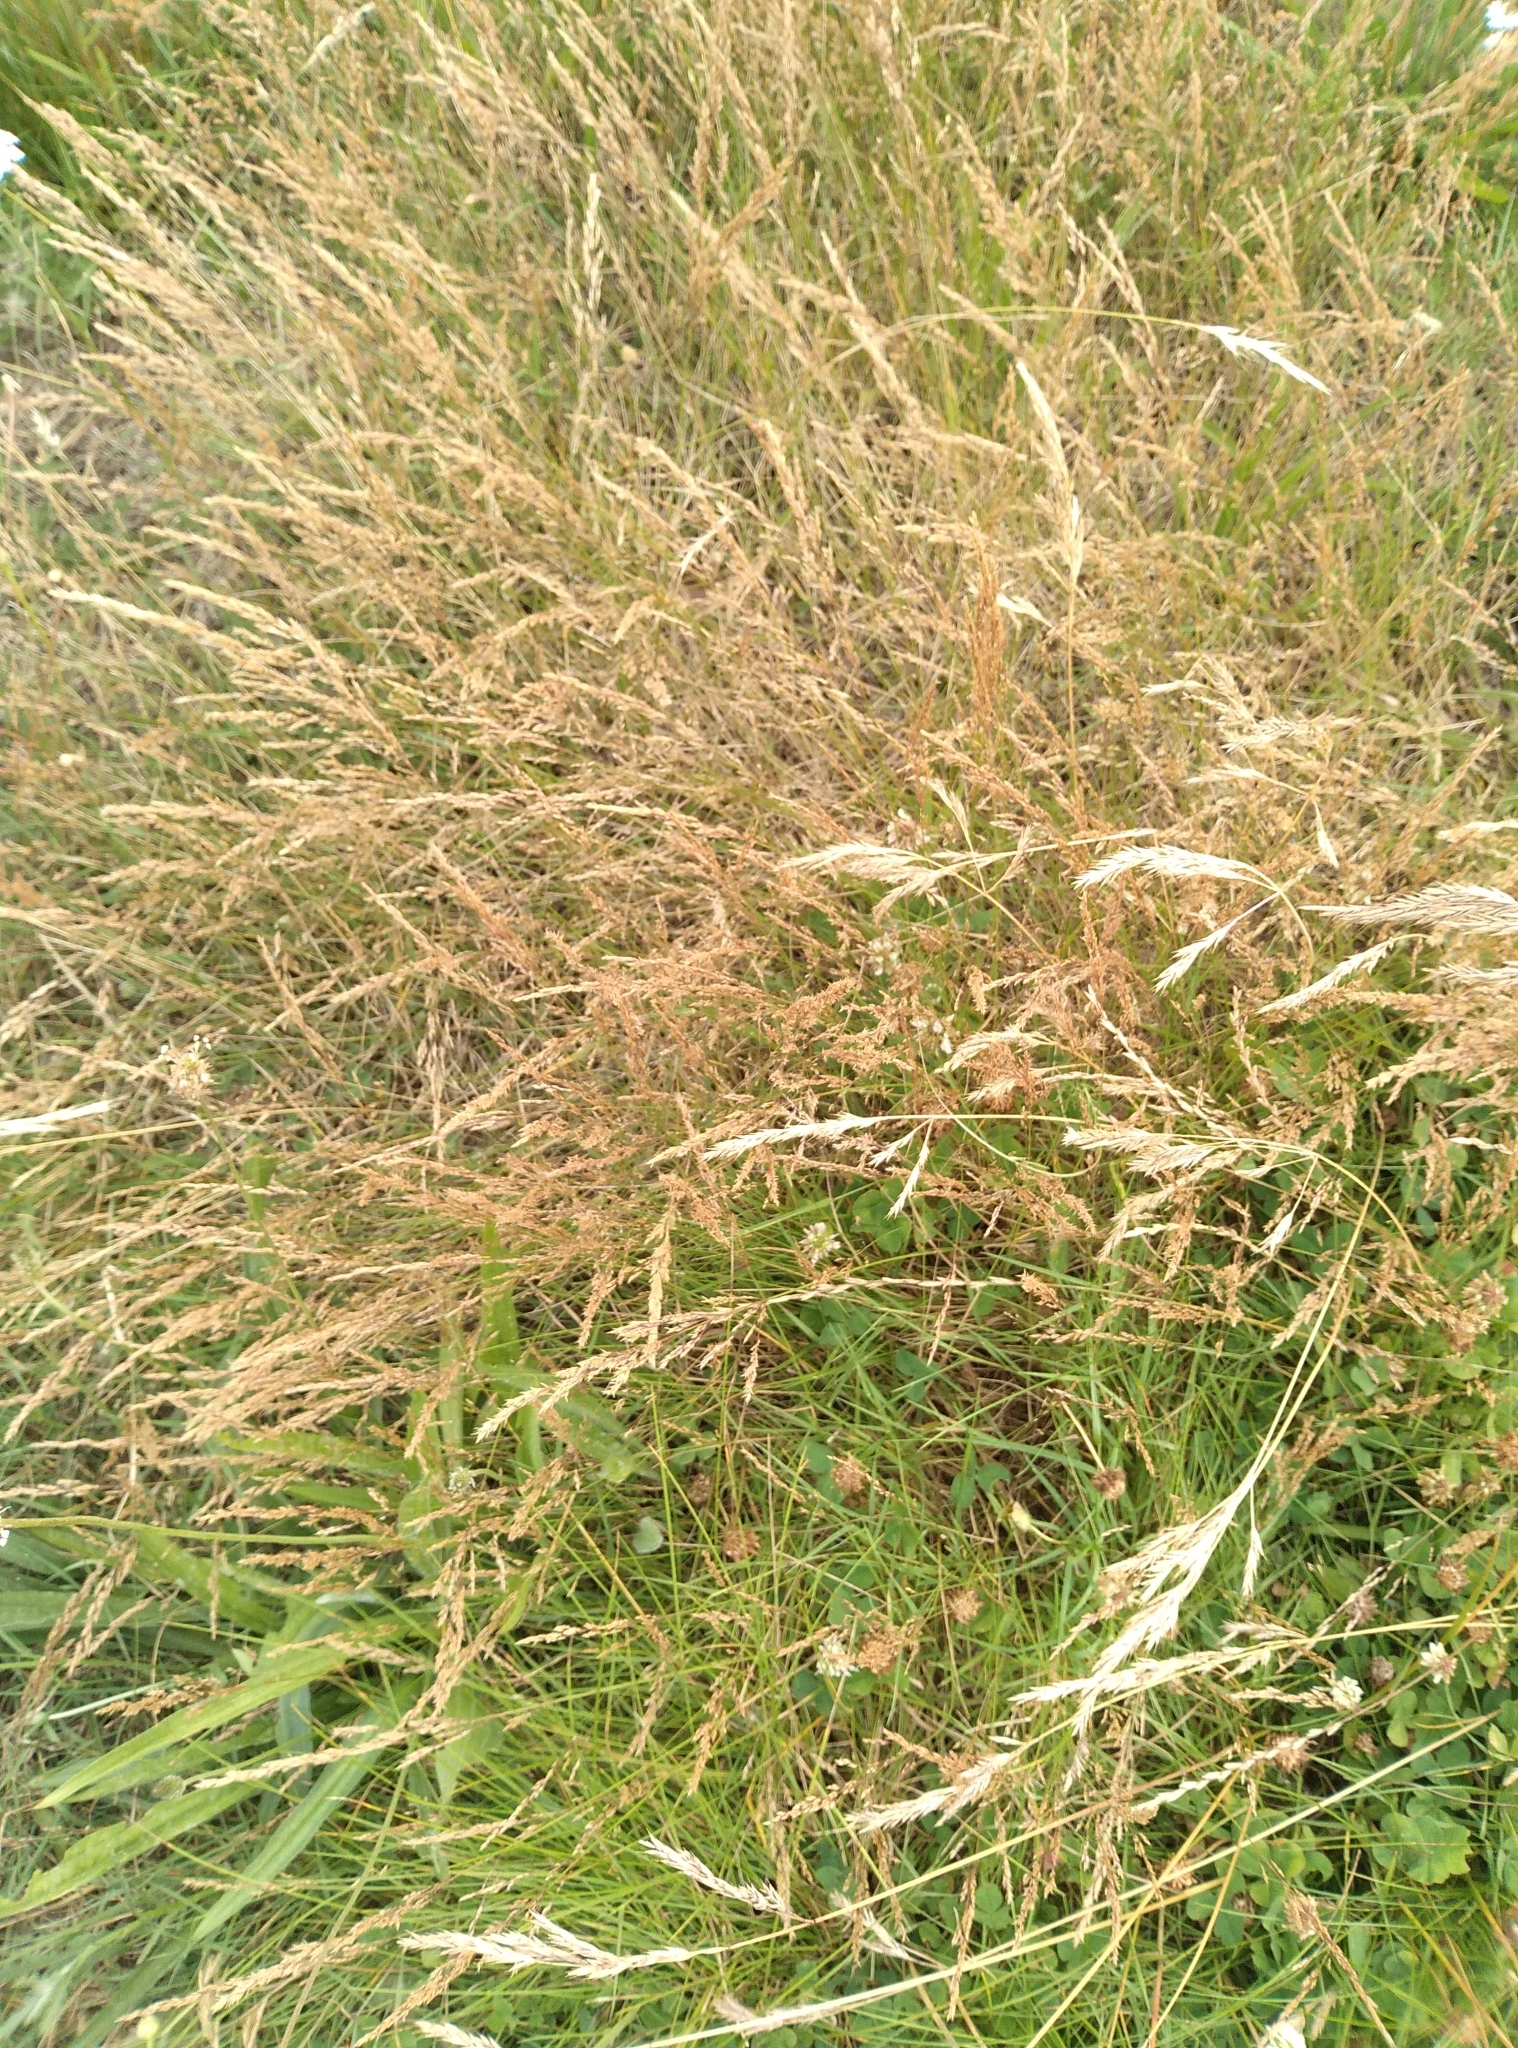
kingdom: Plantae
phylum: Tracheophyta
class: Liliopsida
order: Poales
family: Poaceae
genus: Agrostis
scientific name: Agrostis capillaris
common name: Colonial bentgrass
